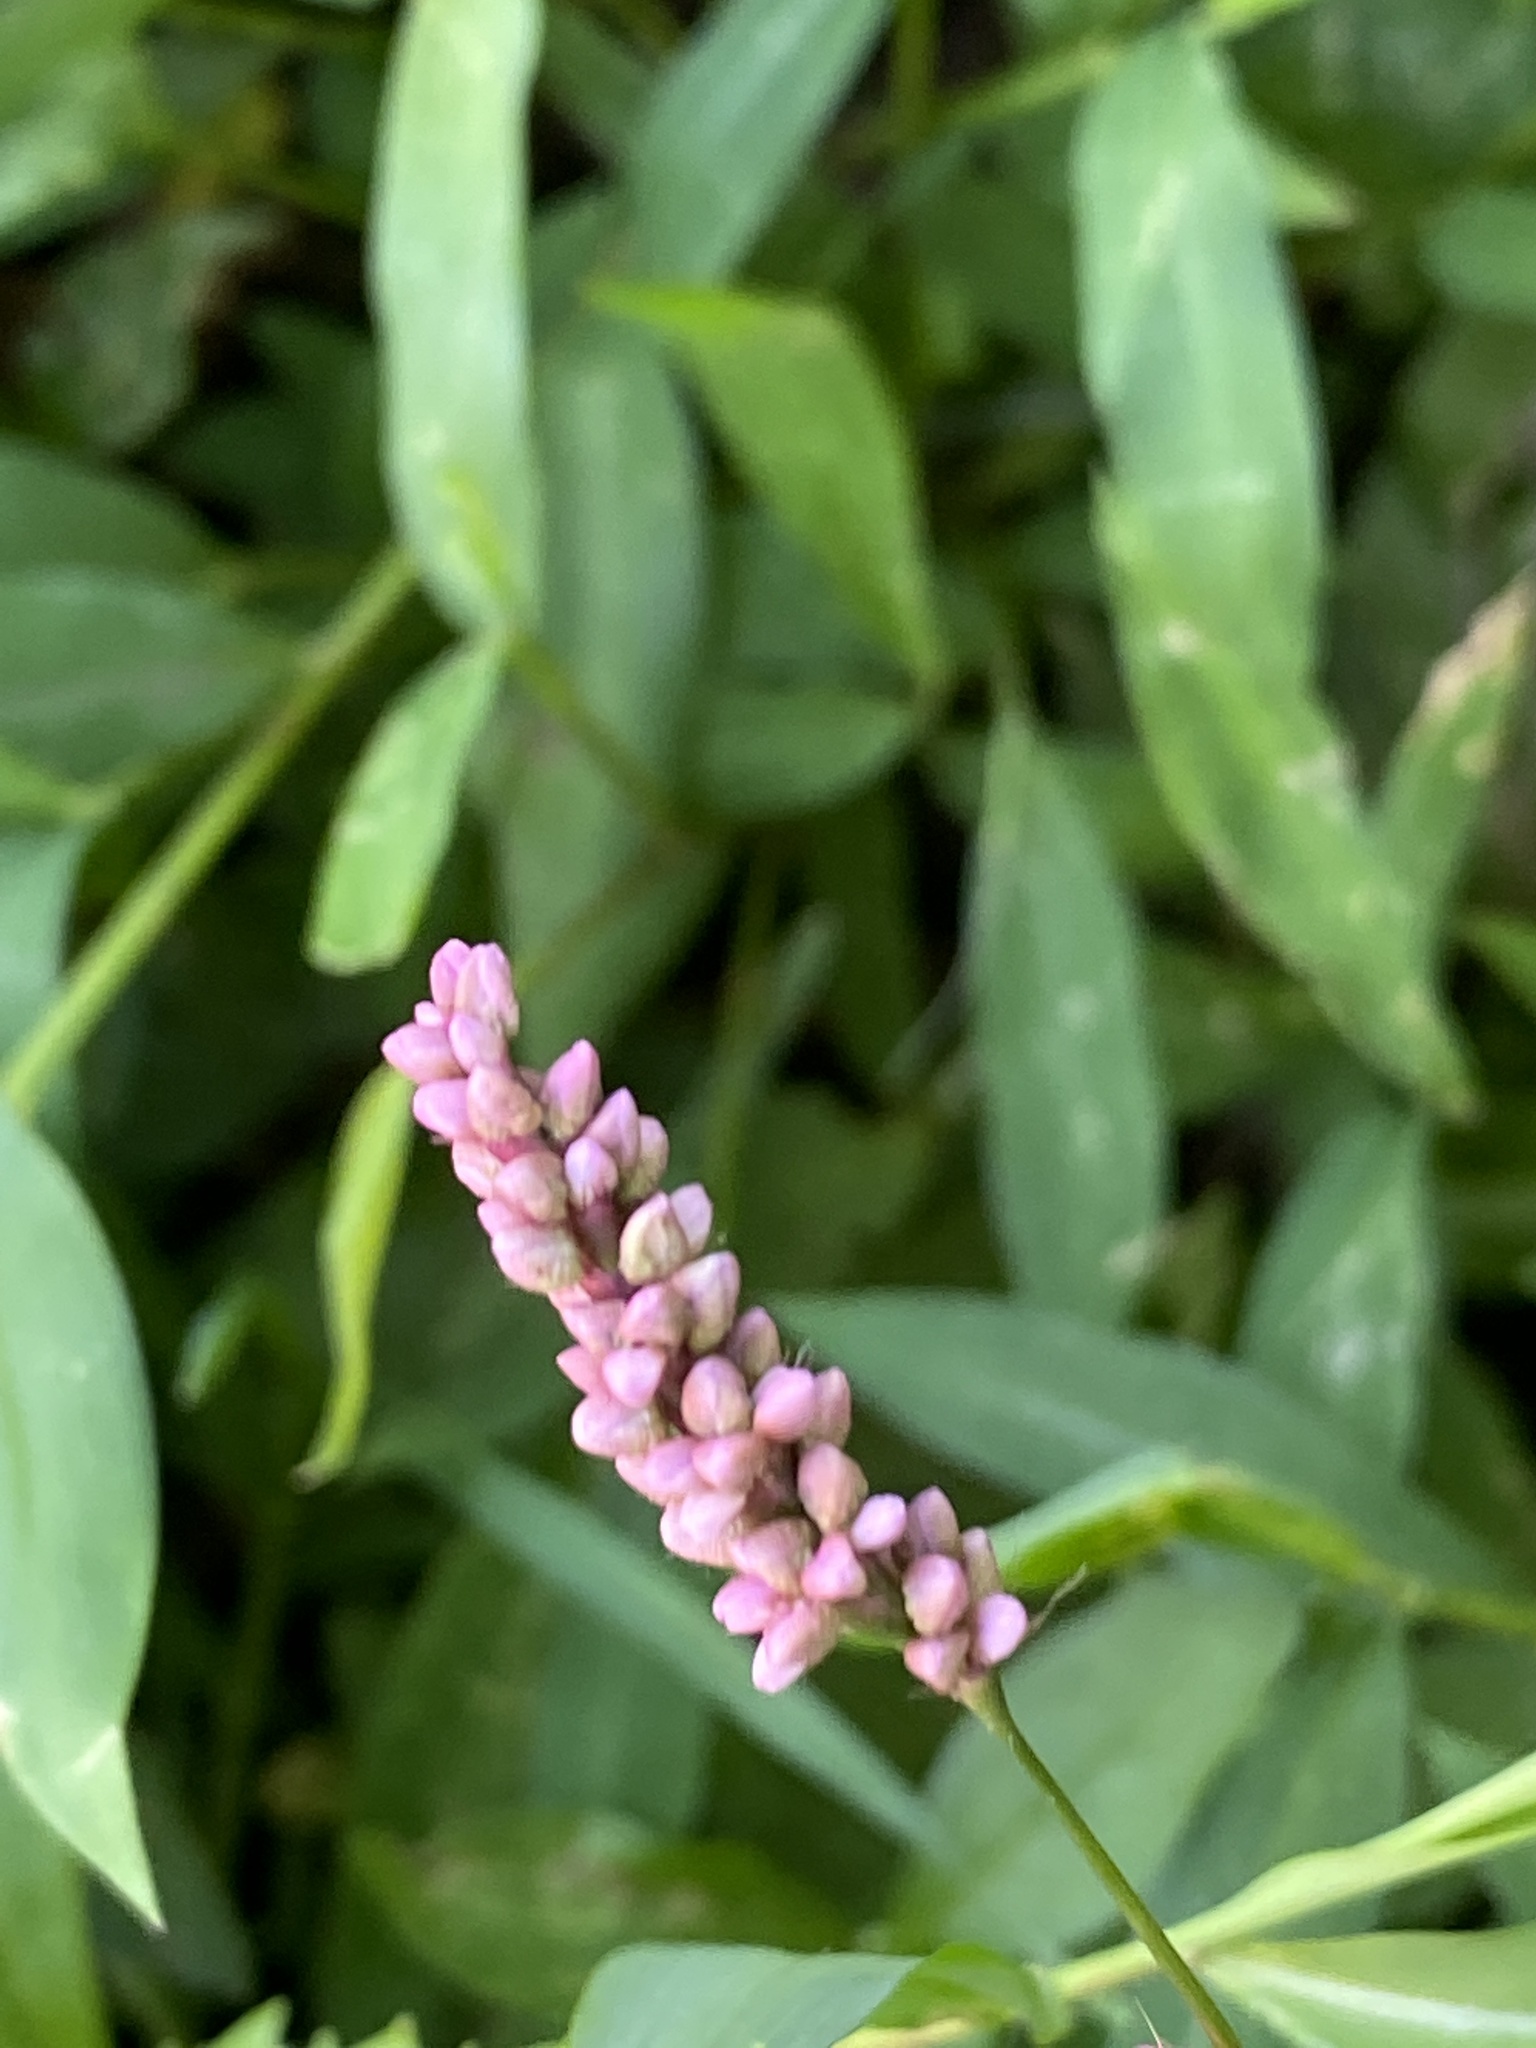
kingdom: Plantae
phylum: Tracheophyta
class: Magnoliopsida
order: Caryophyllales
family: Polygonaceae
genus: Persicaria
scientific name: Persicaria longiseta
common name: Bristly lady's-thumb
